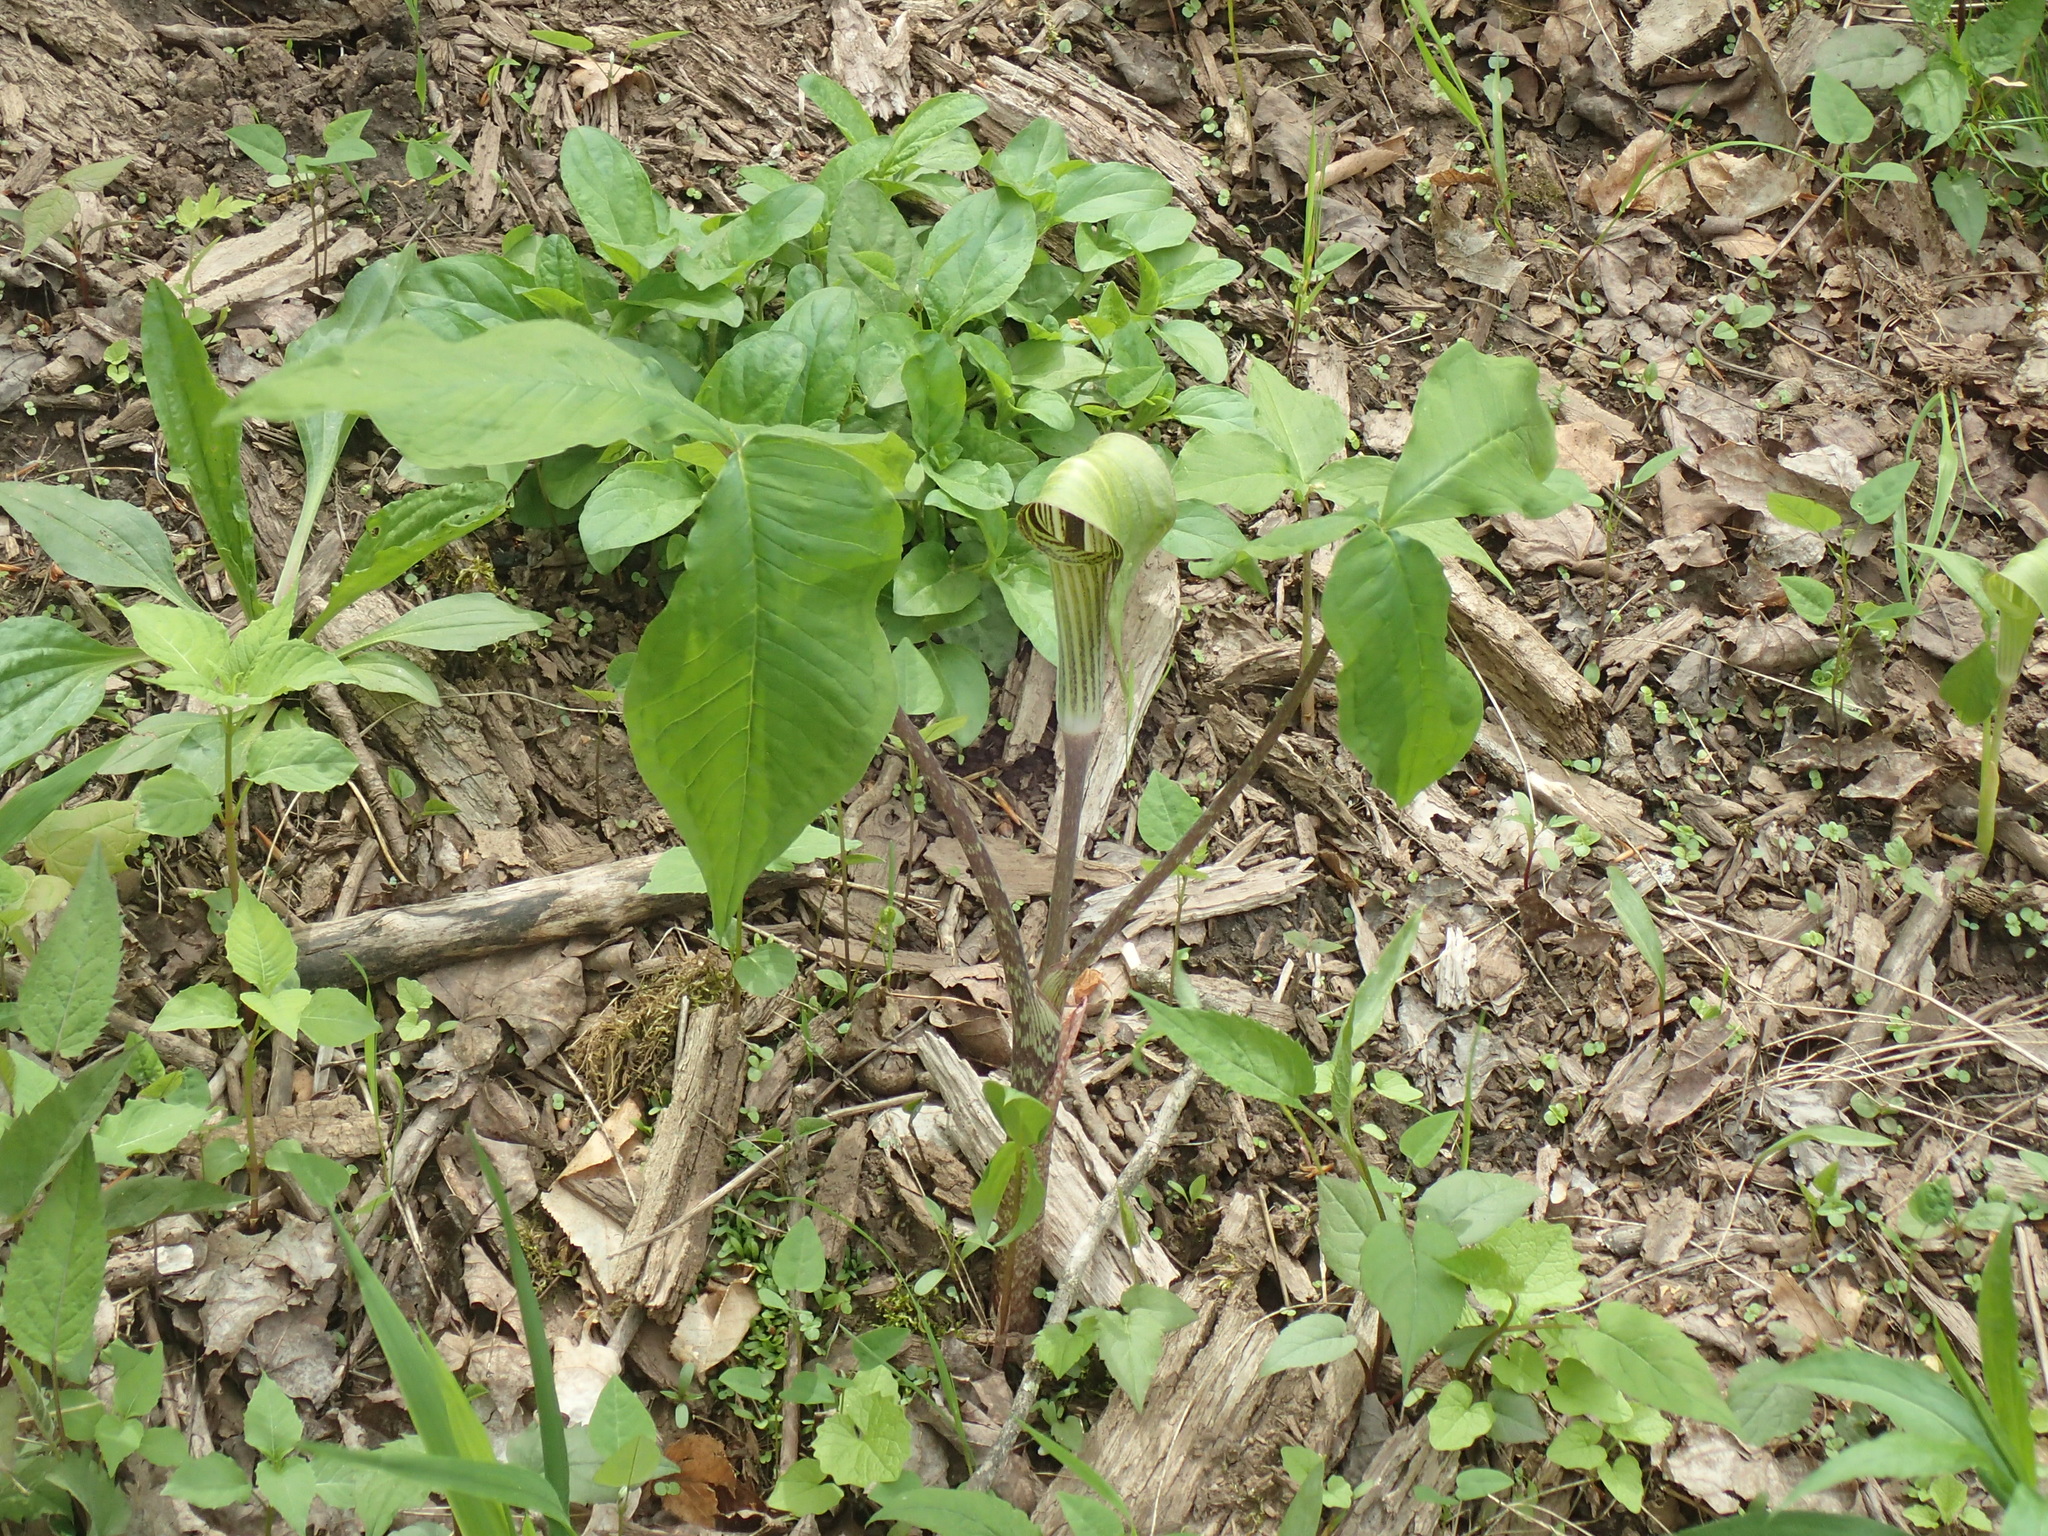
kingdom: Plantae
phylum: Tracheophyta
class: Liliopsida
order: Alismatales
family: Araceae
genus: Arisaema
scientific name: Arisaema triphyllum
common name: Jack-in-the-pulpit
